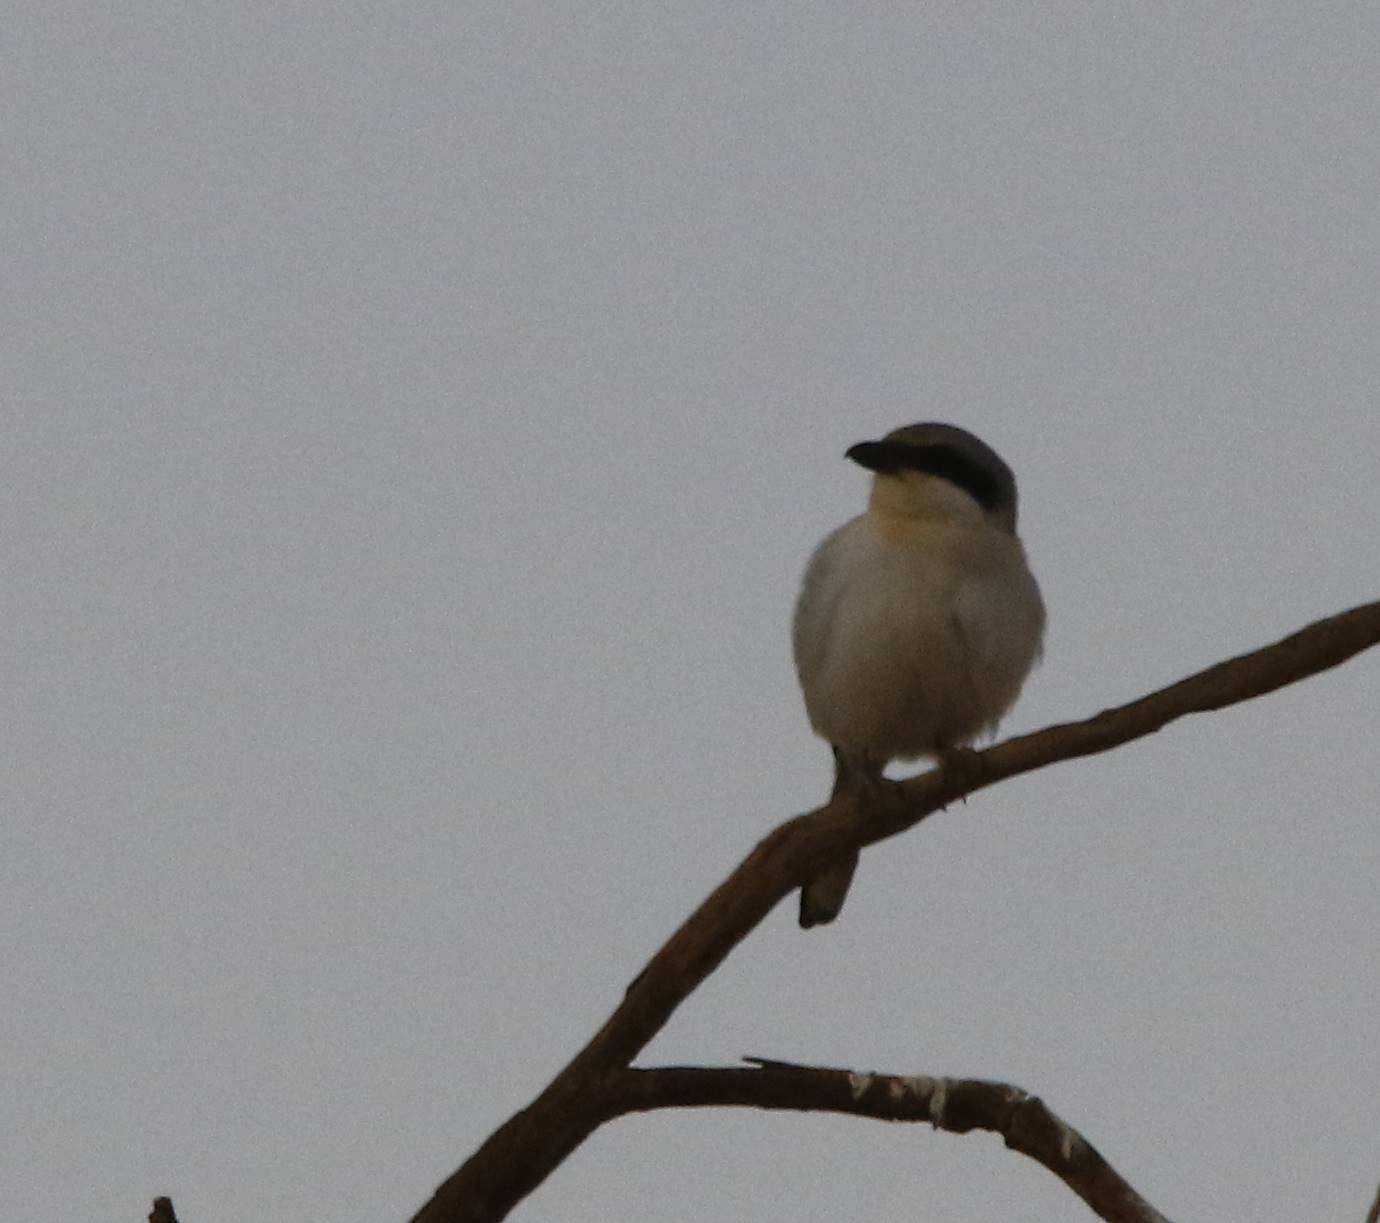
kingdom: Animalia
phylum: Chordata
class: Aves
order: Passeriformes
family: Laniidae
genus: Lanius
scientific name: Lanius excubitor
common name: Great grey shrike
